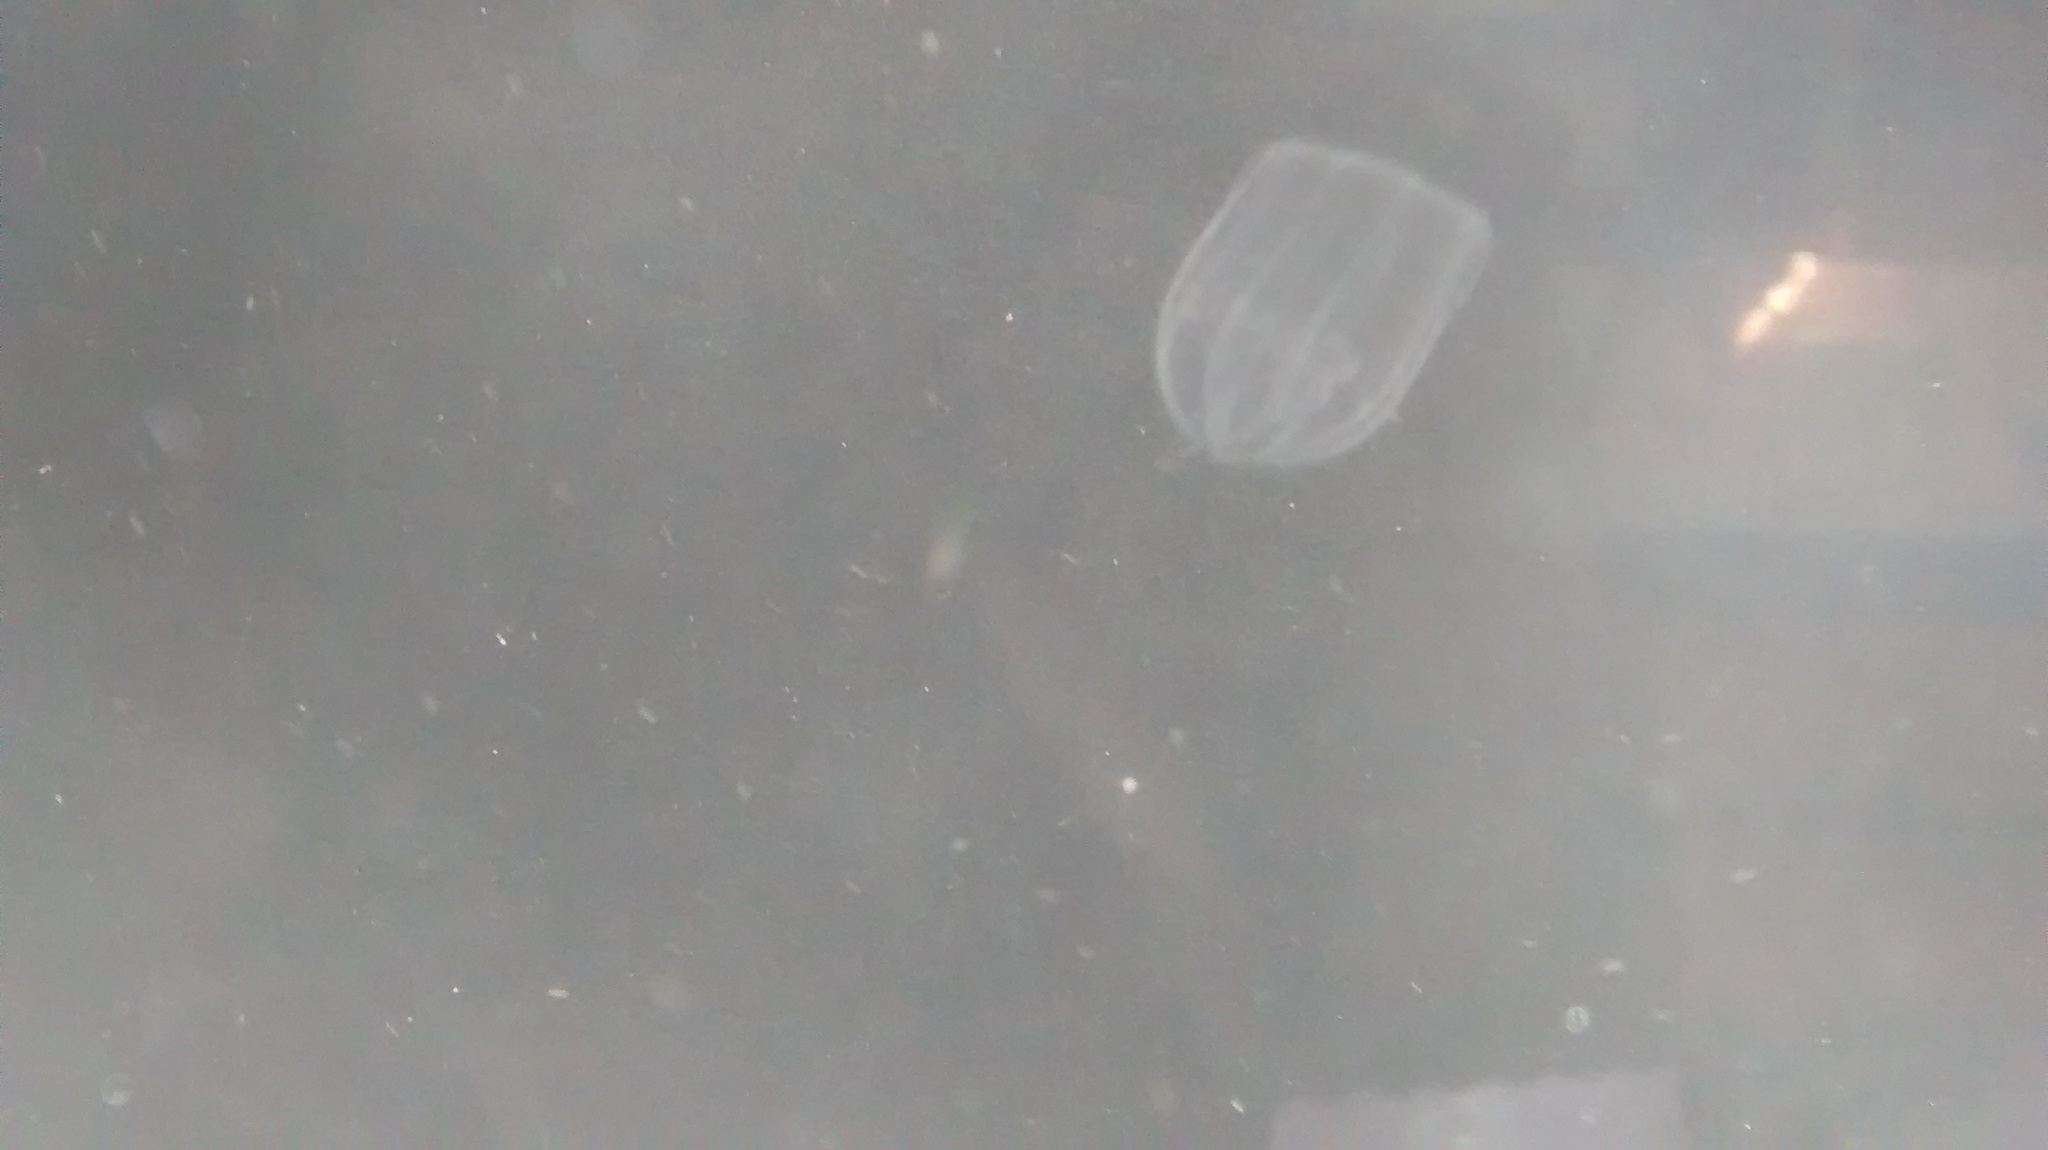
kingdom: Animalia
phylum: Ctenophora
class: Nuda
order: Beroida
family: Beroidae
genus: Beroe
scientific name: Beroe ovata
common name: Flattened helmet comb jelly
